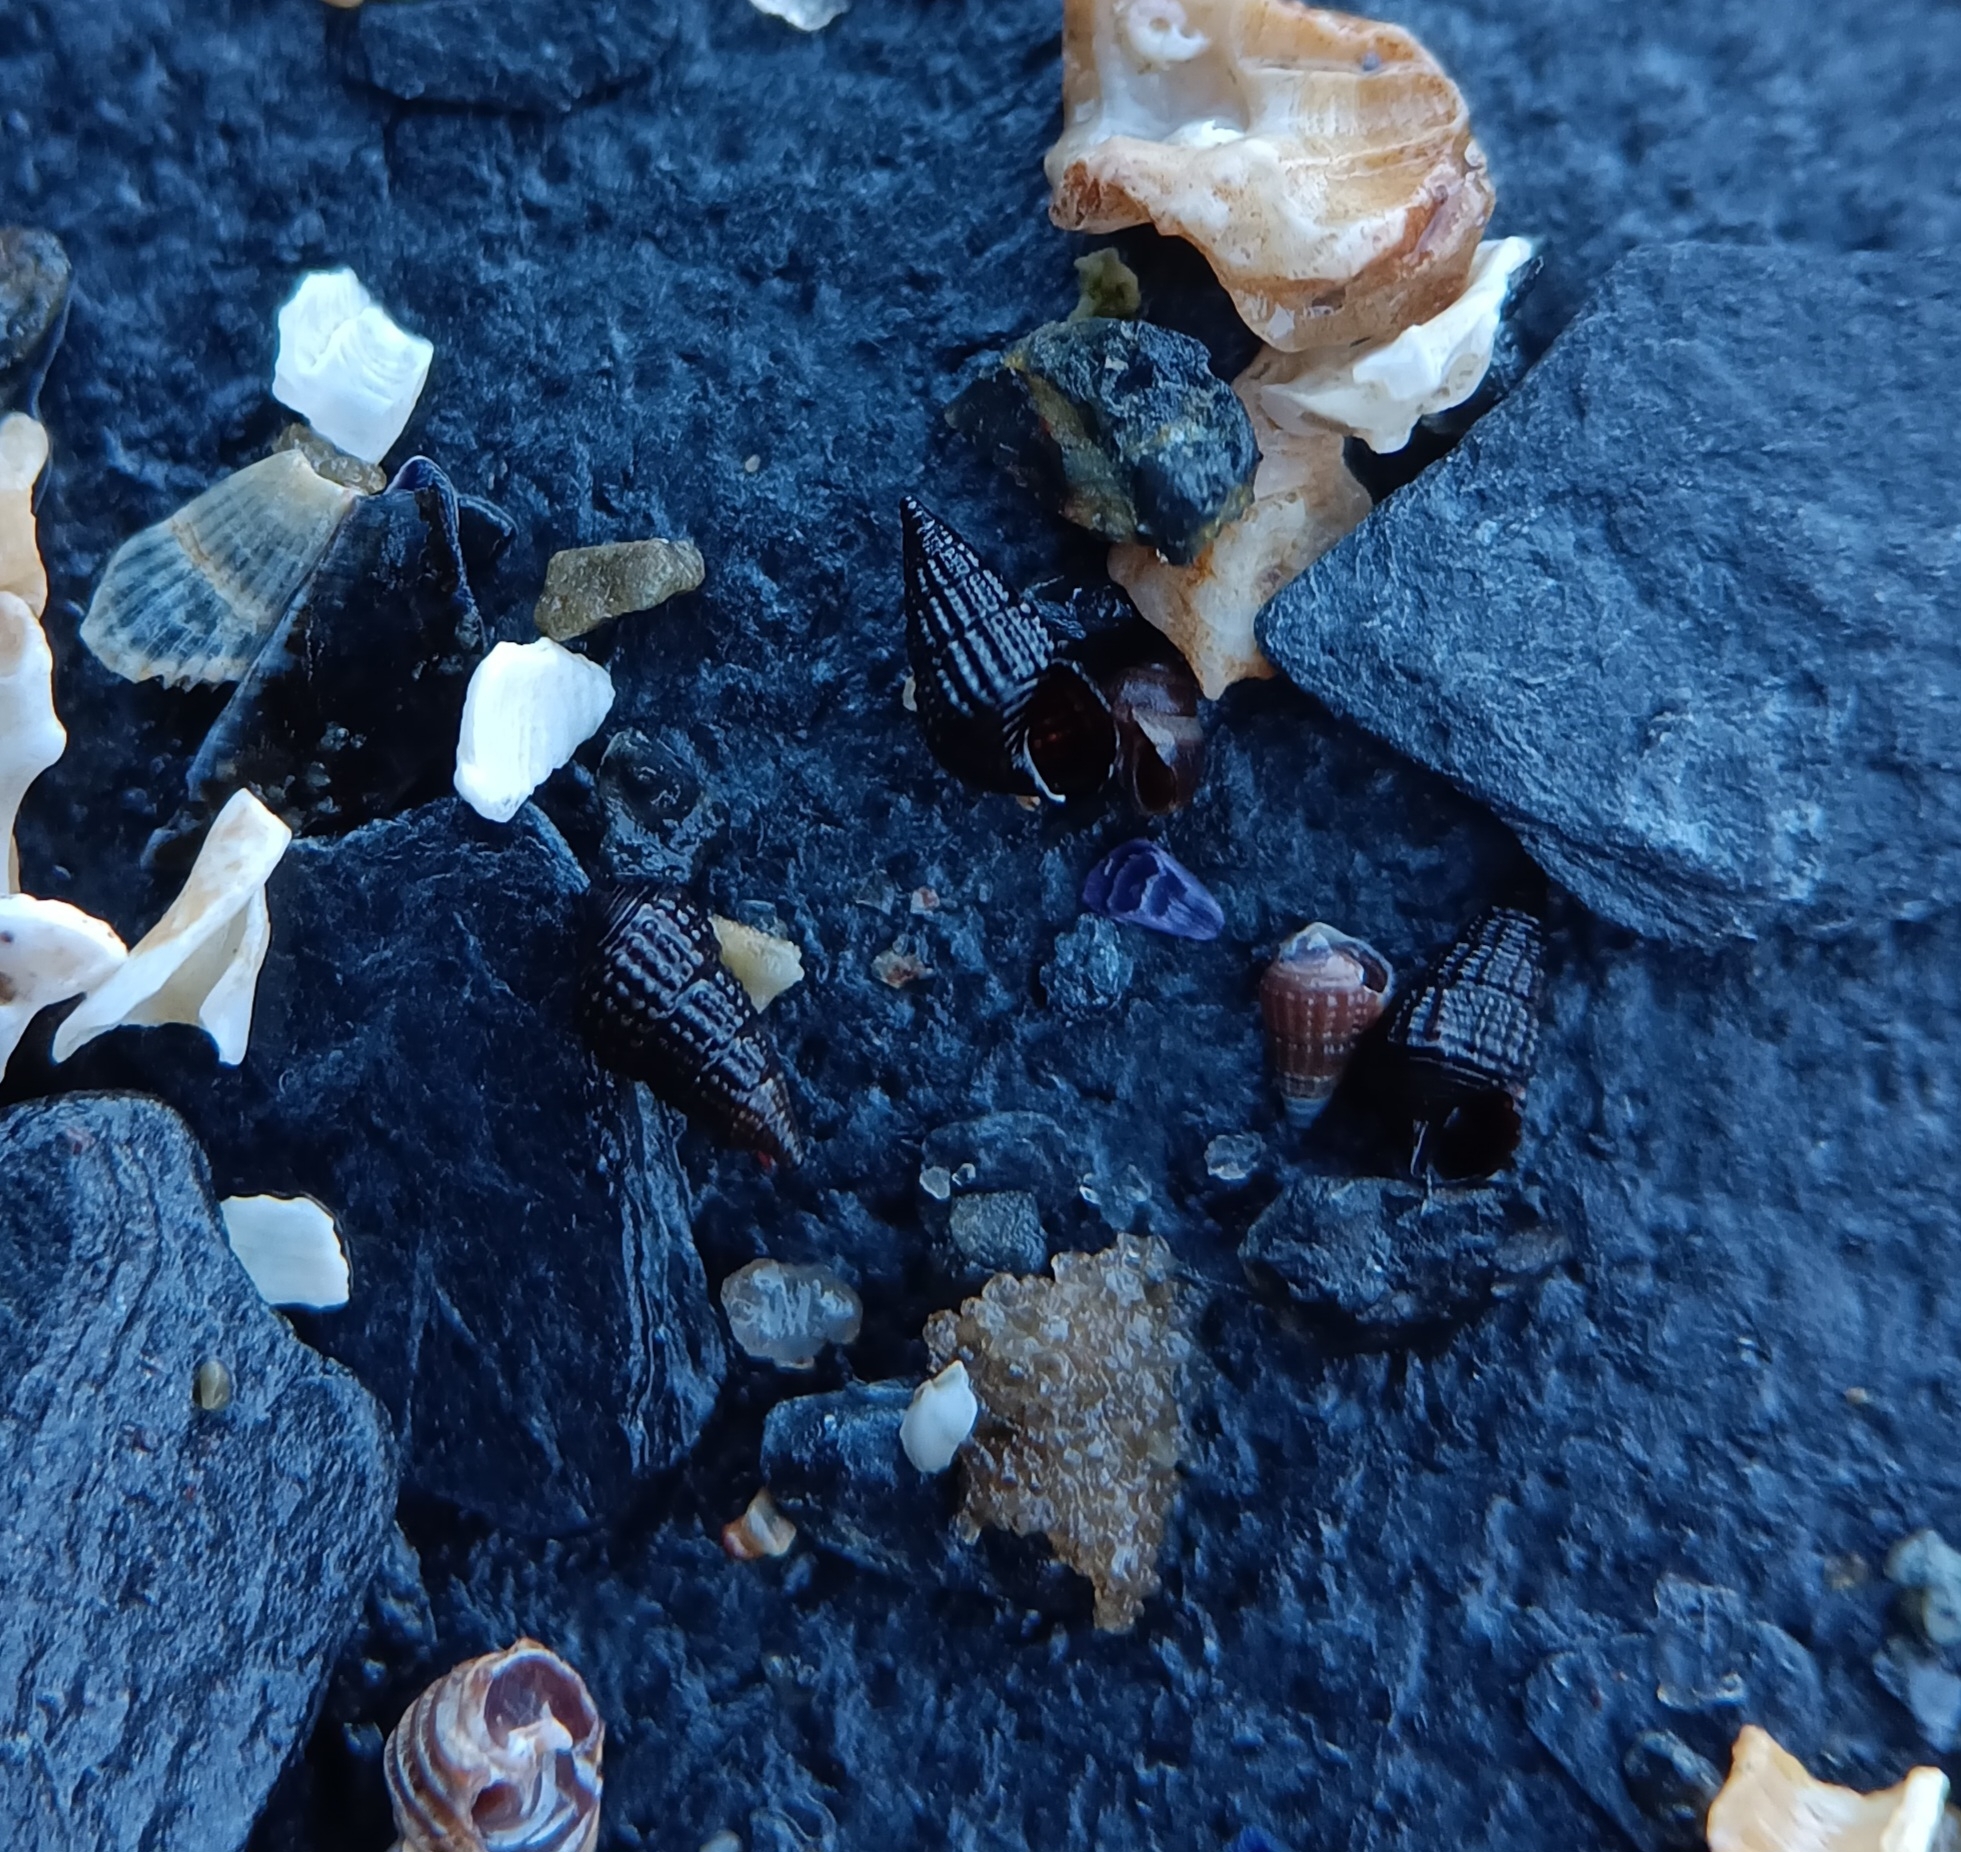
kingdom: Animalia
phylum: Mollusca
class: Gastropoda
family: Cerithiidae
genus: Bittiolum
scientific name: Bittiolum alternatum
